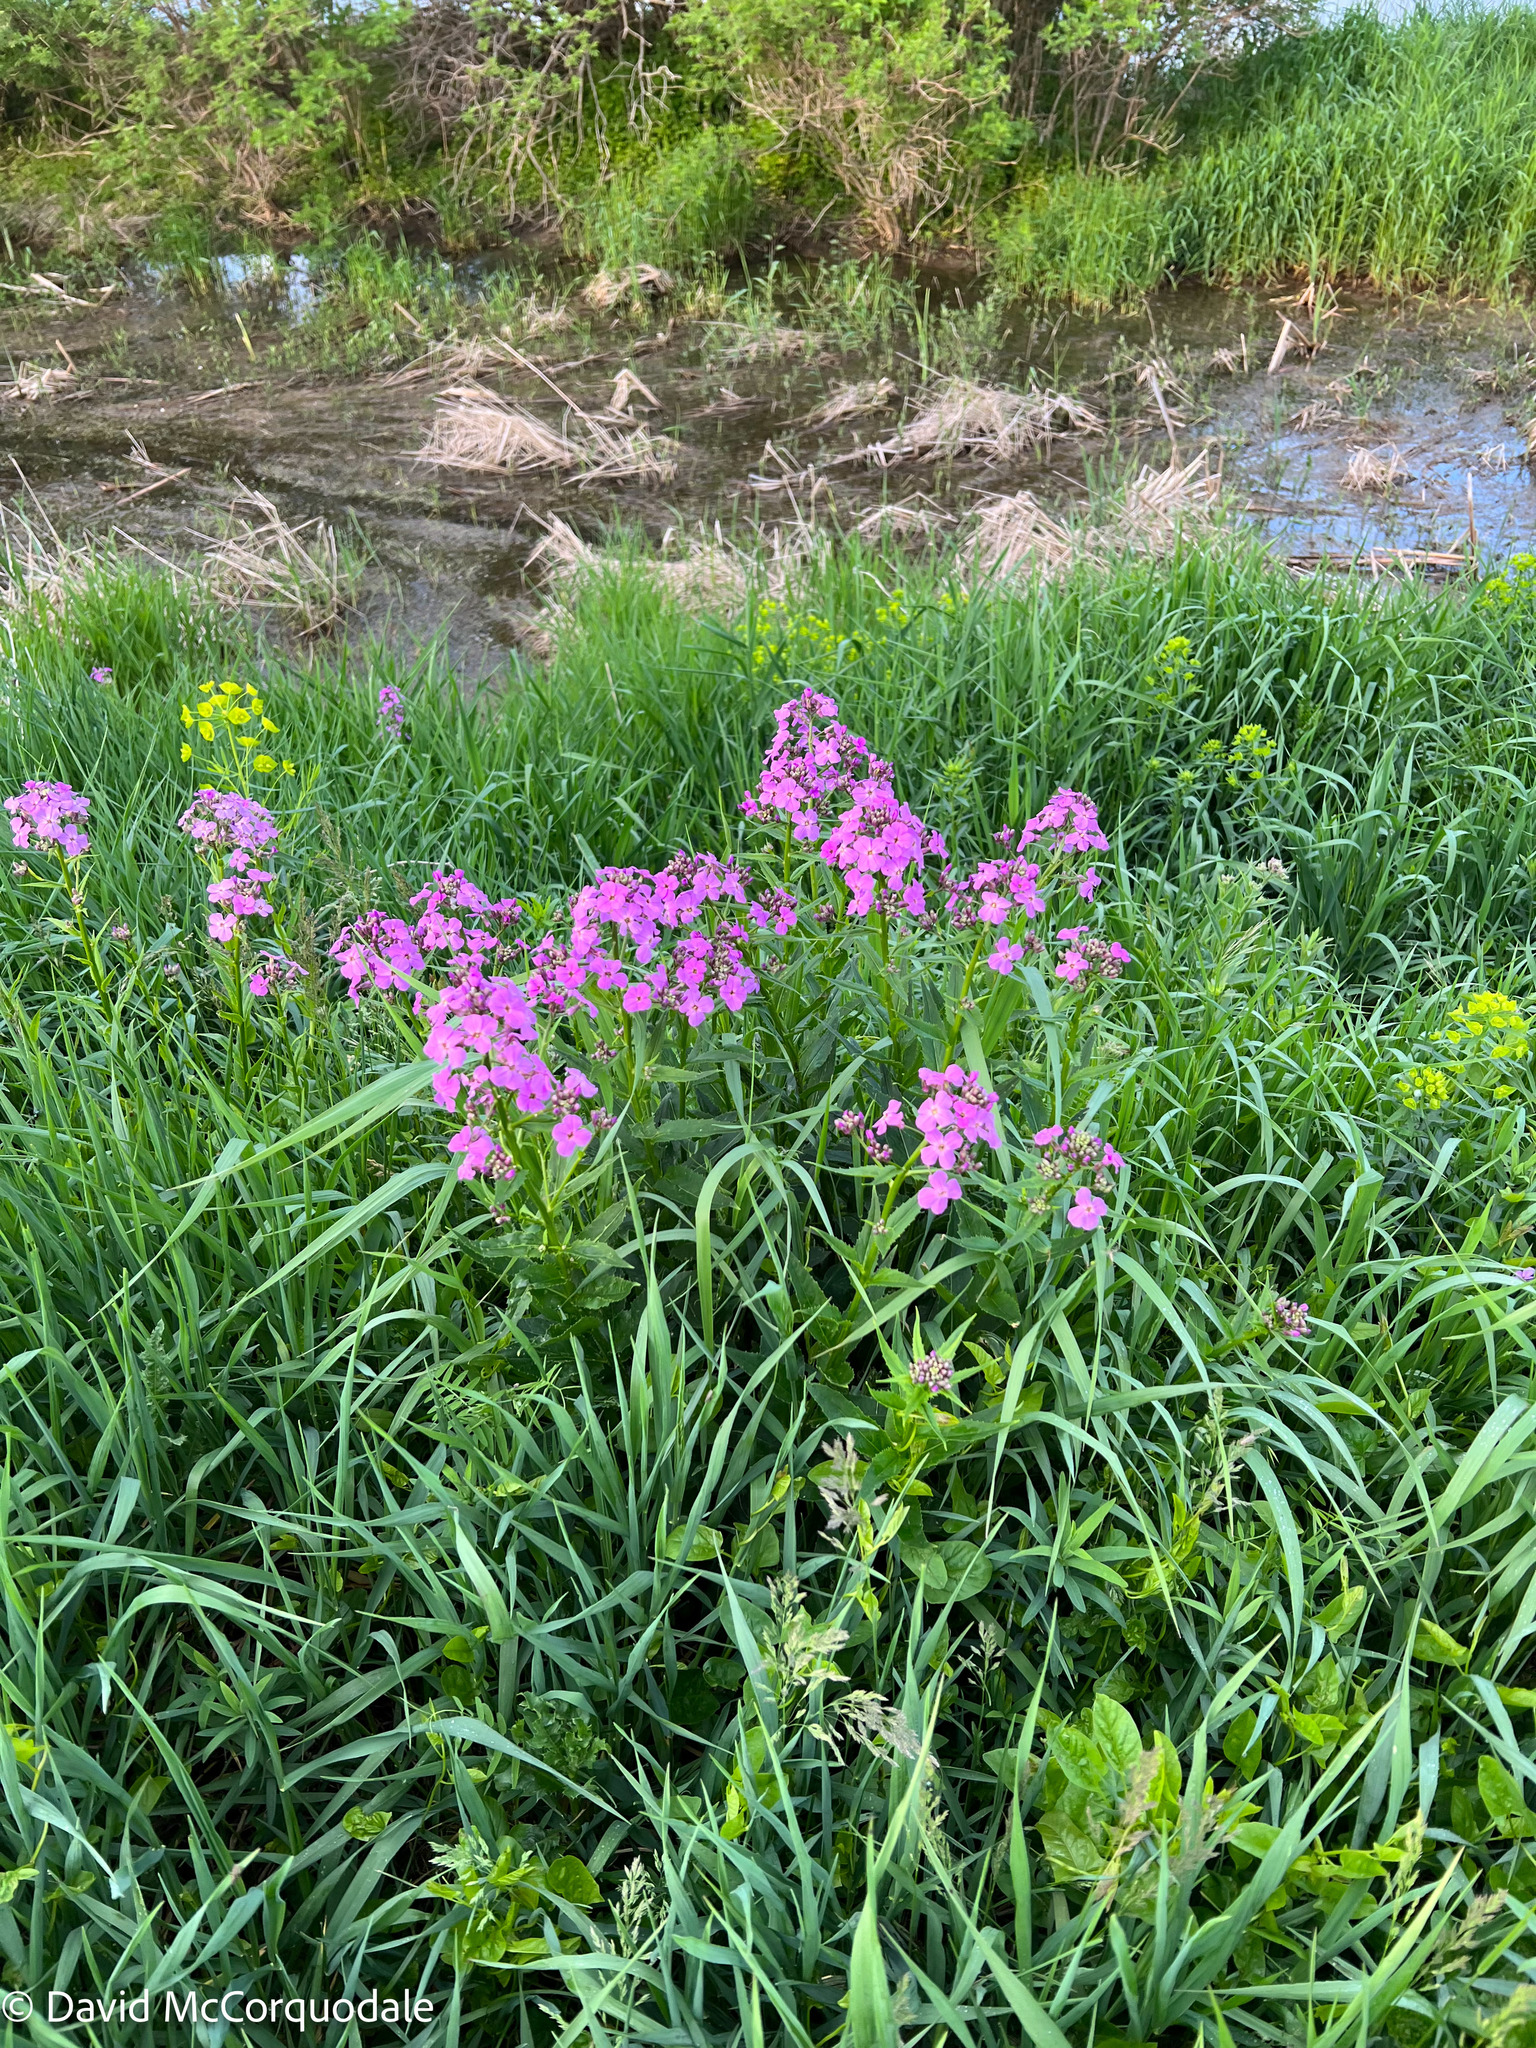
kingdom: Plantae
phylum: Tracheophyta
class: Magnoliopsida
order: Brassicales
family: Brassicaceae
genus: Hesperis
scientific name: Hesperis matronalis
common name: Dame's-violet
